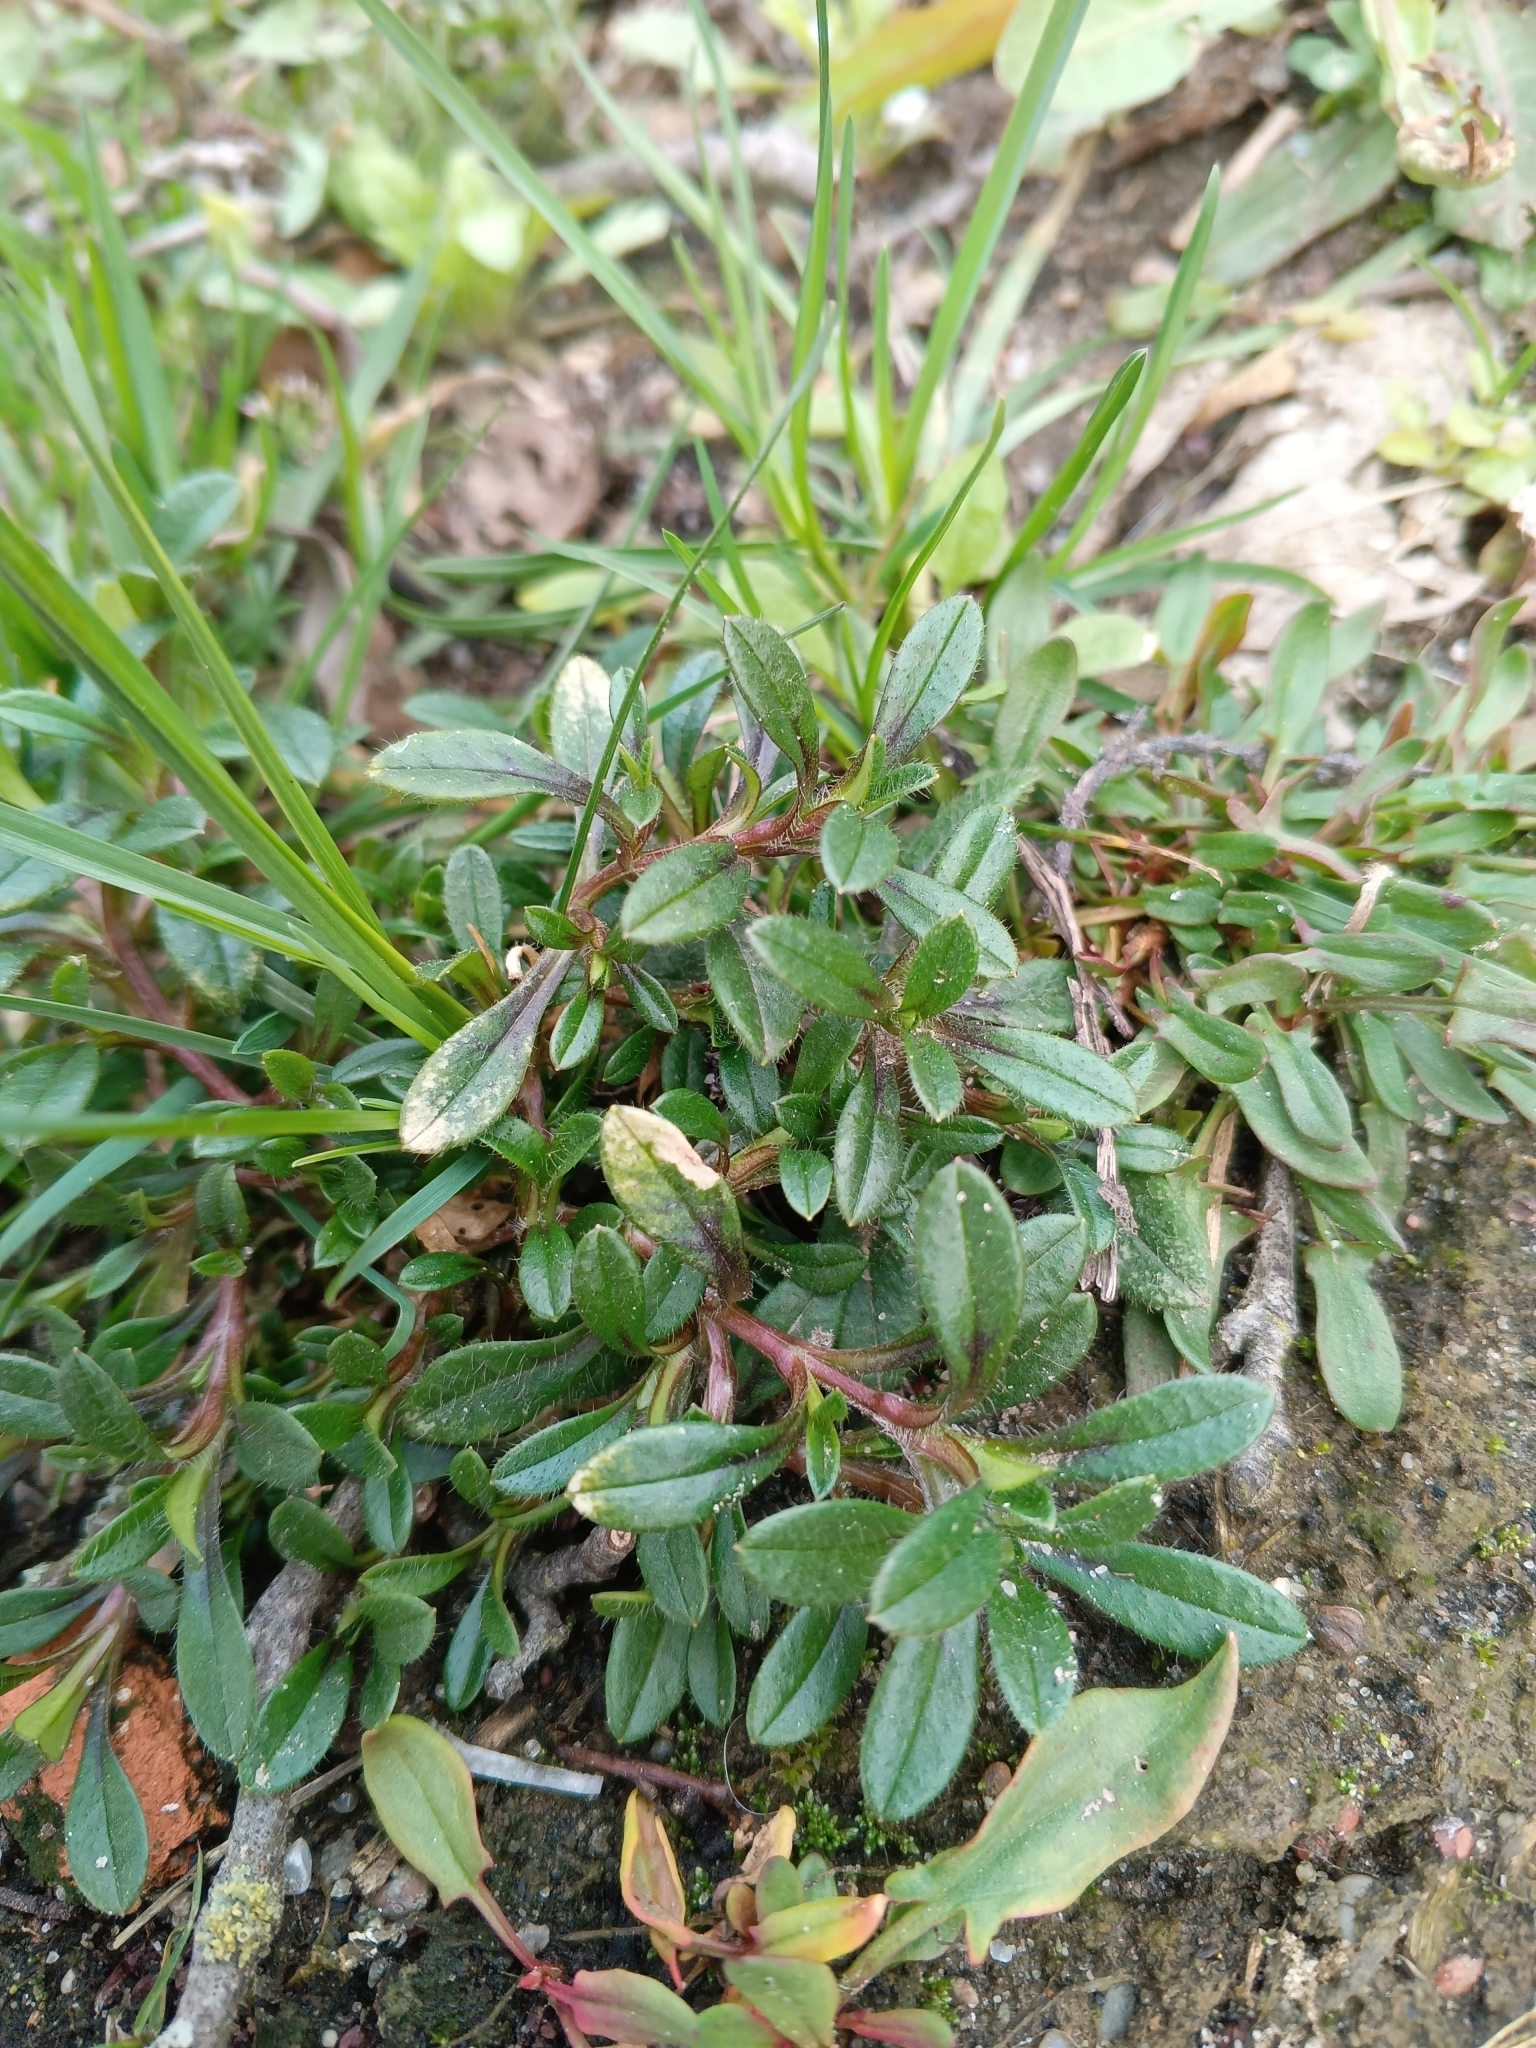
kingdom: Plantae
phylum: Tracheophyta
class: Magnoliopsida
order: Caryophyllales
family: Caryophyllaceae
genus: Cerastium
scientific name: Cerastium holosteoides
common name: Big chickweed
